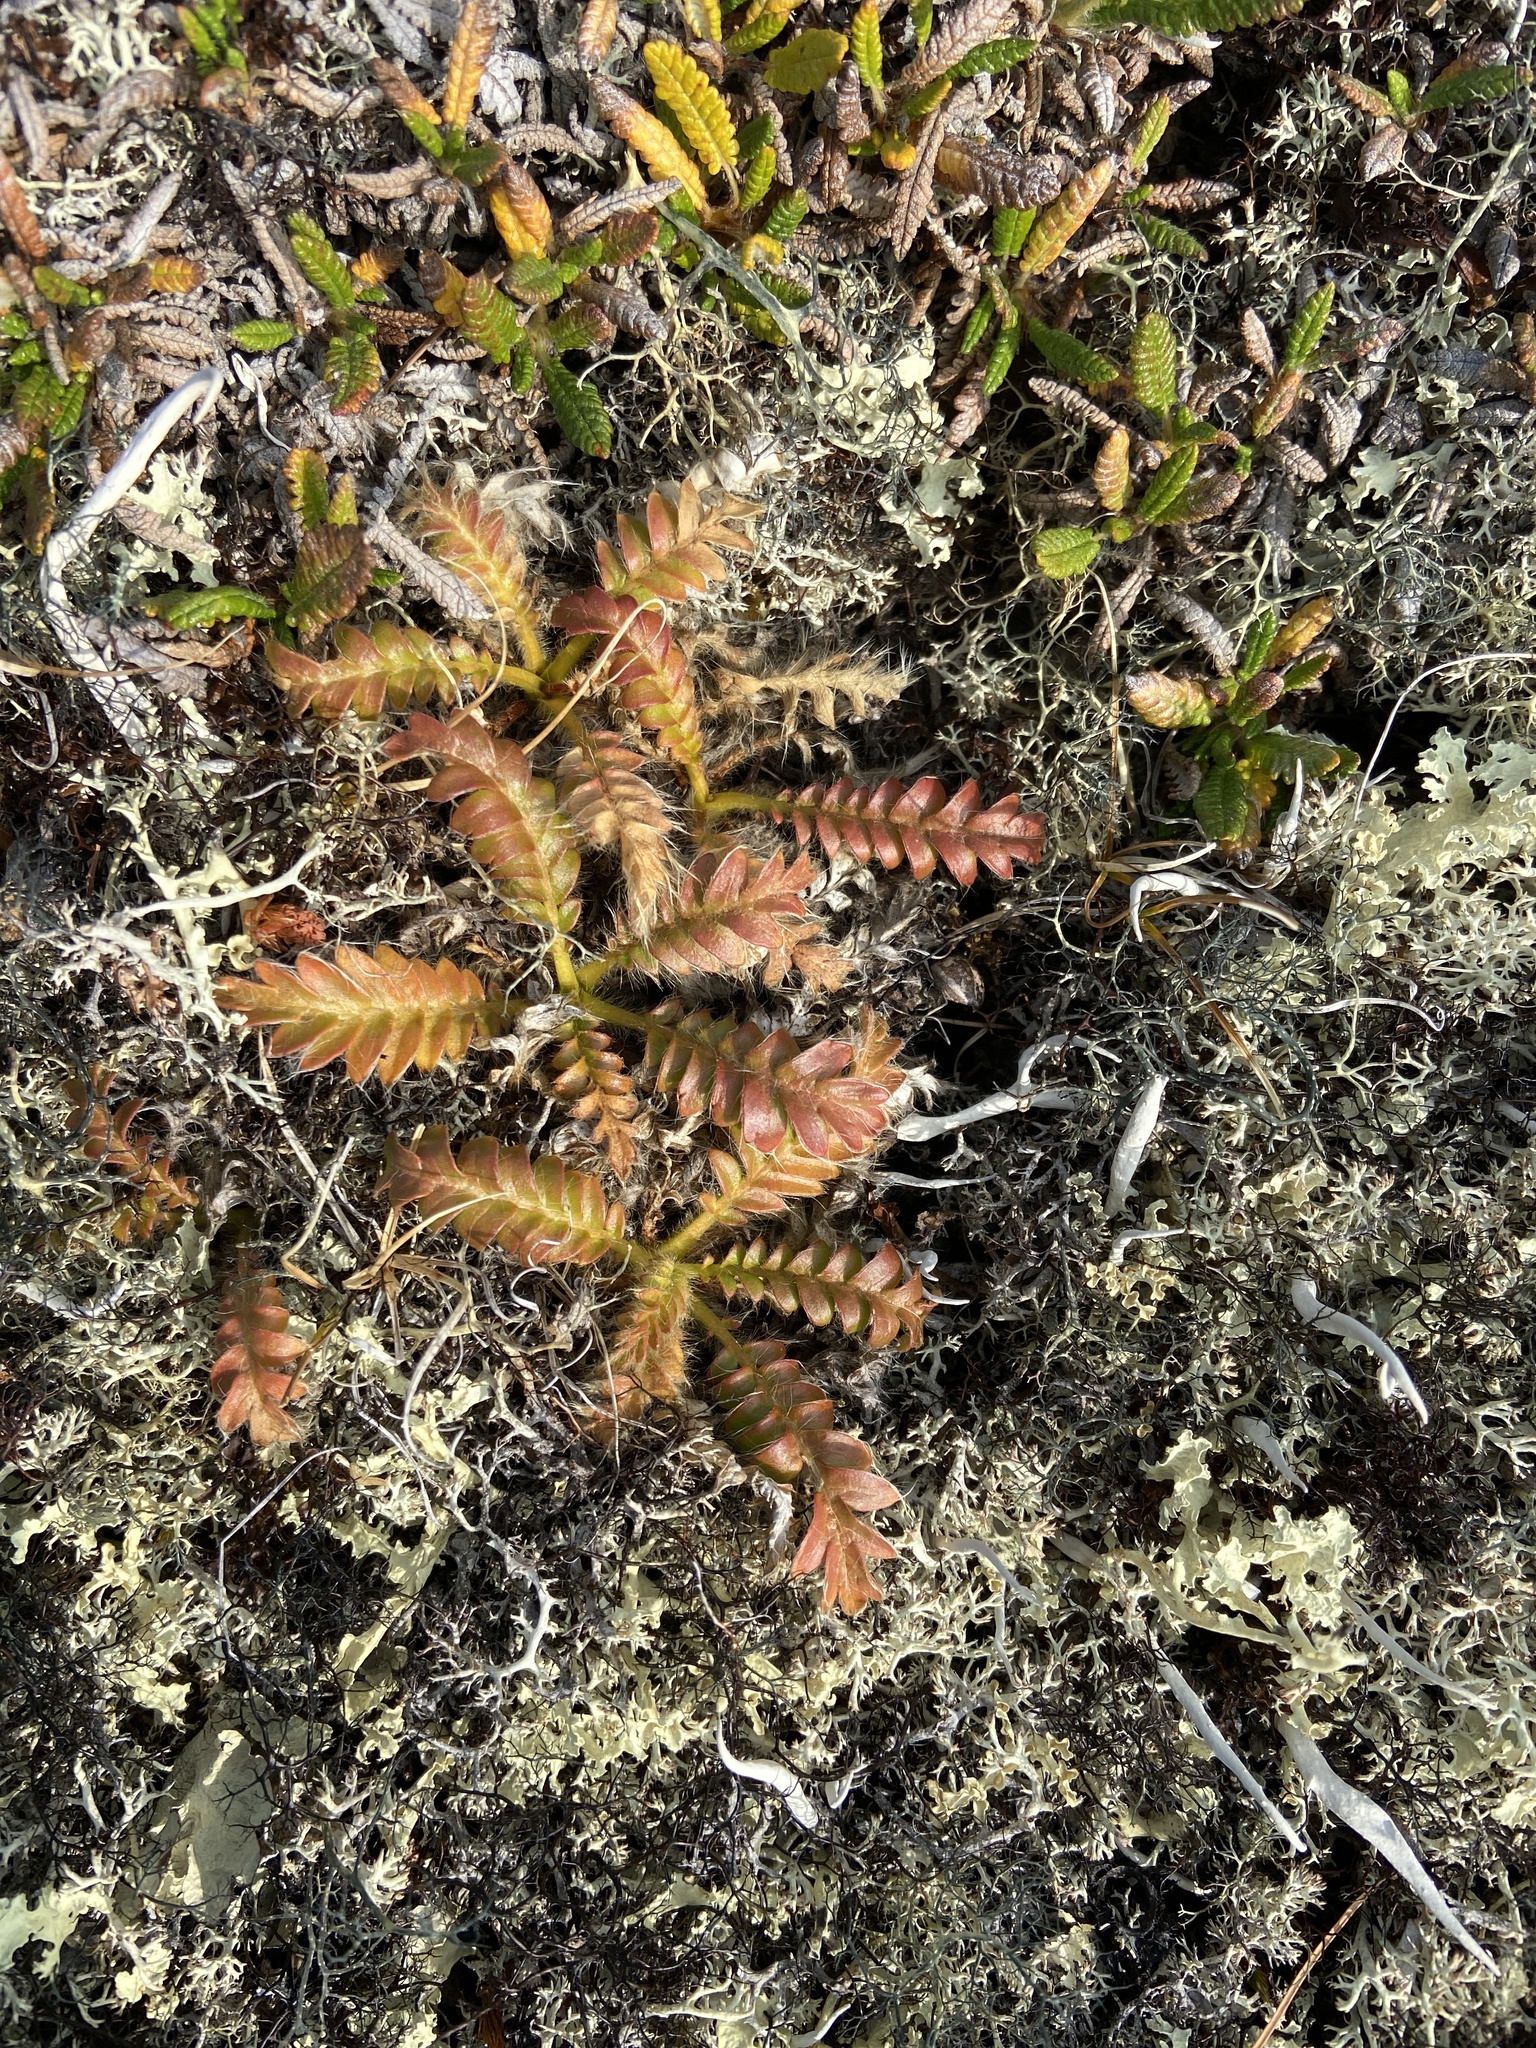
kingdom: Plantae
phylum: Tracheophyta
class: Magnoliopsida
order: Rosales
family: Rosaceae
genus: Geum
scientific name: Geum glaciale
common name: Glacier avens
